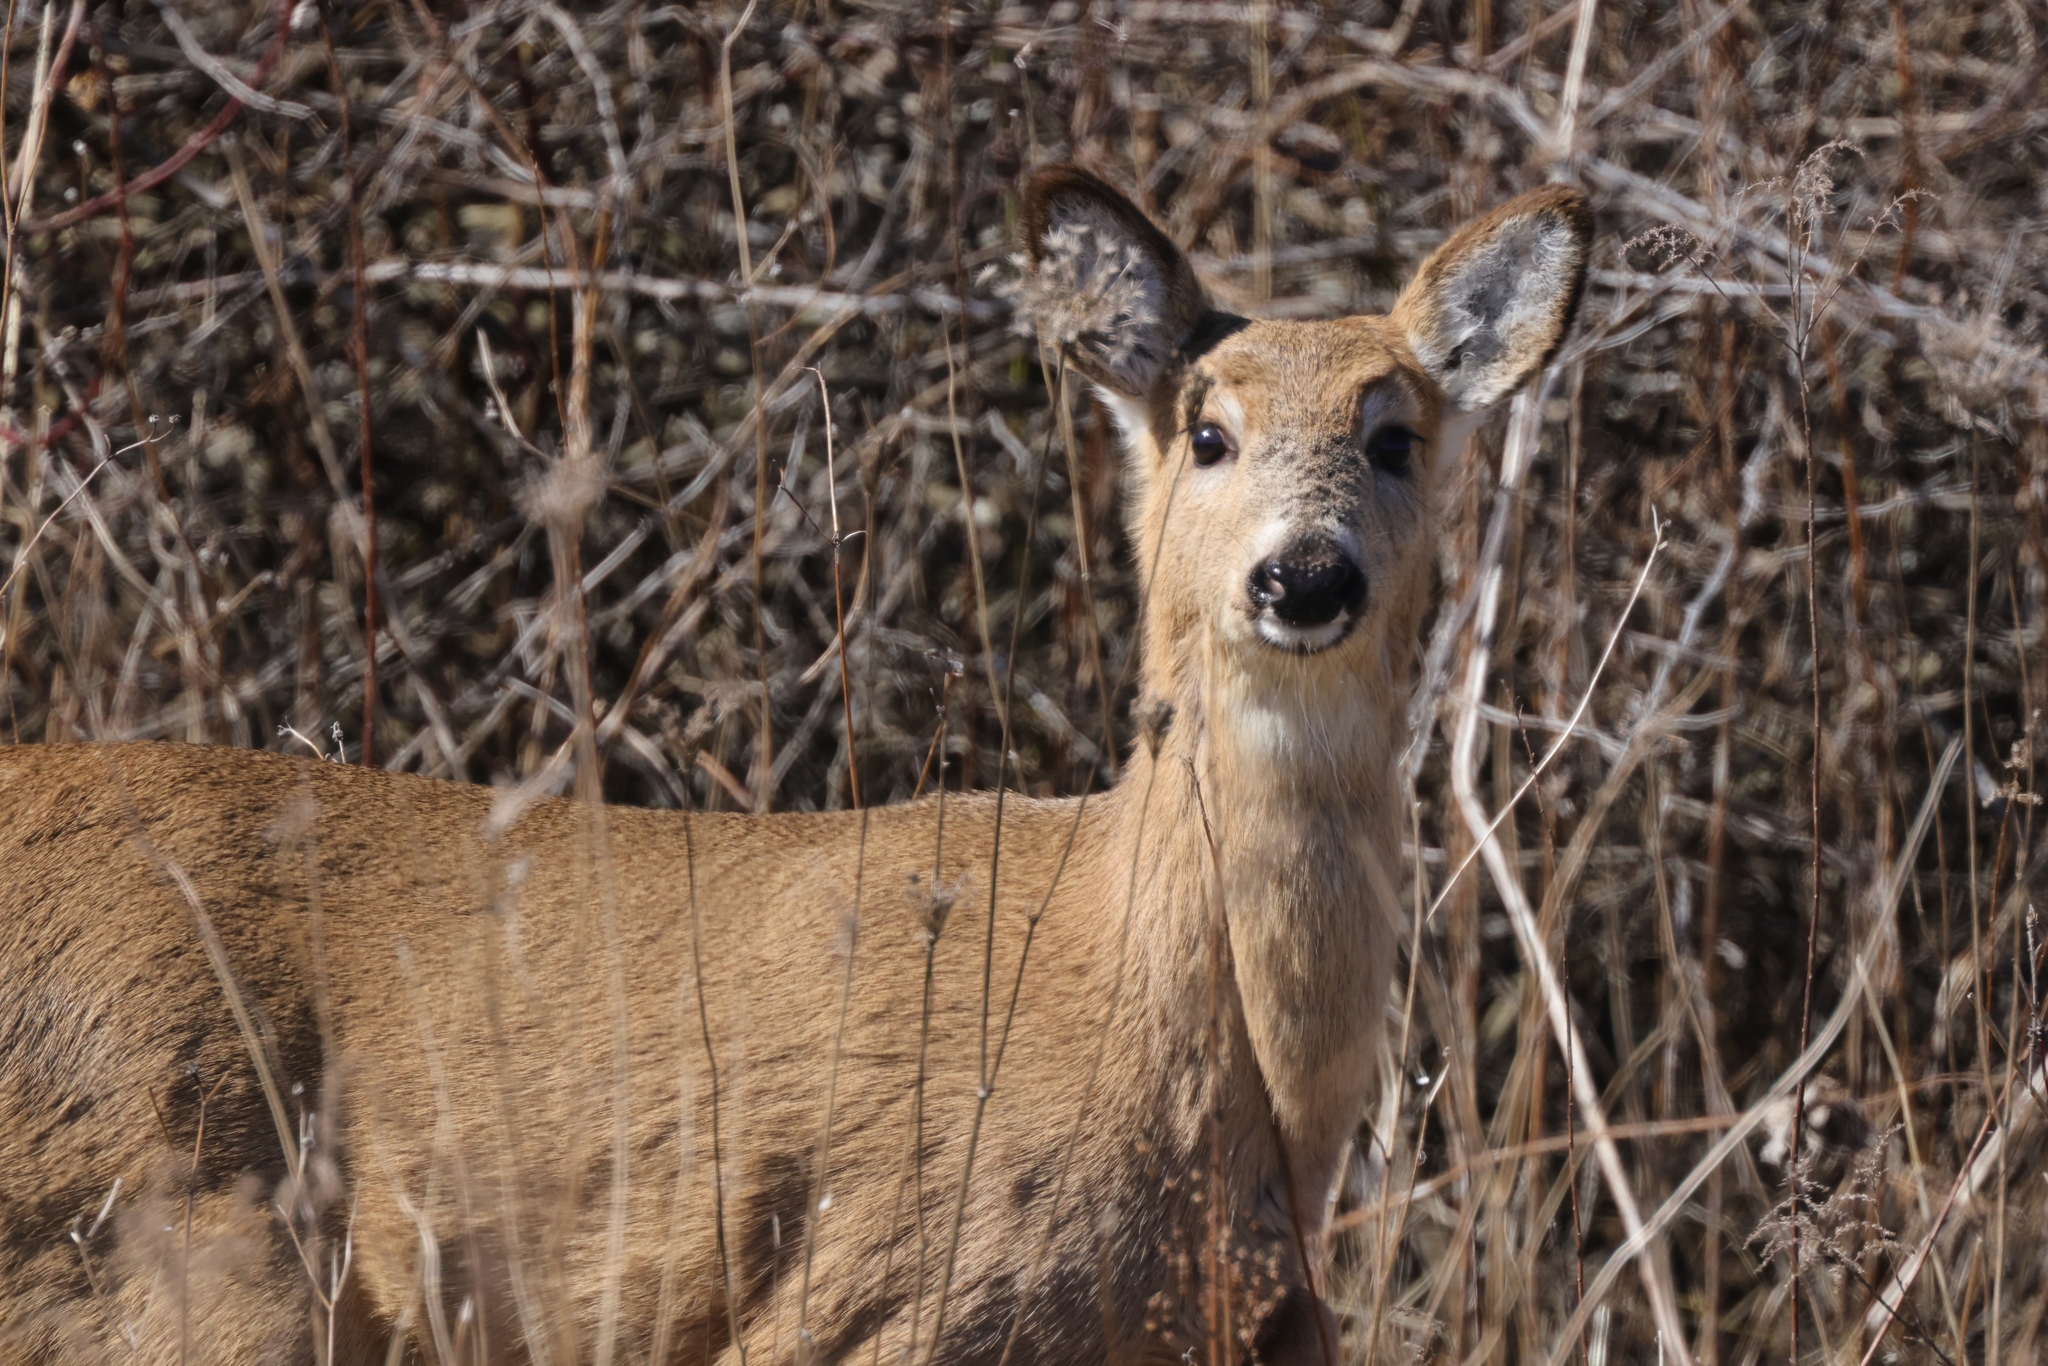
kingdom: Animalia
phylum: Chordata
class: Mammalia
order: Artiodactyla
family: Cervidae
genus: Odocoileus
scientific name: Odocoileus virginianus
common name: White-tailed deer
